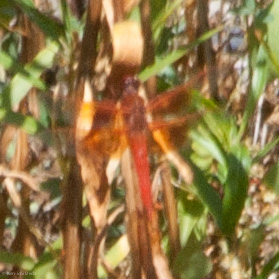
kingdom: Animalia
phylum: Arthropoda
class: Insecta
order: Odonata
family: Libellulidae
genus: Libellula
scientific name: Libellula saturata
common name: Flame skimmer
